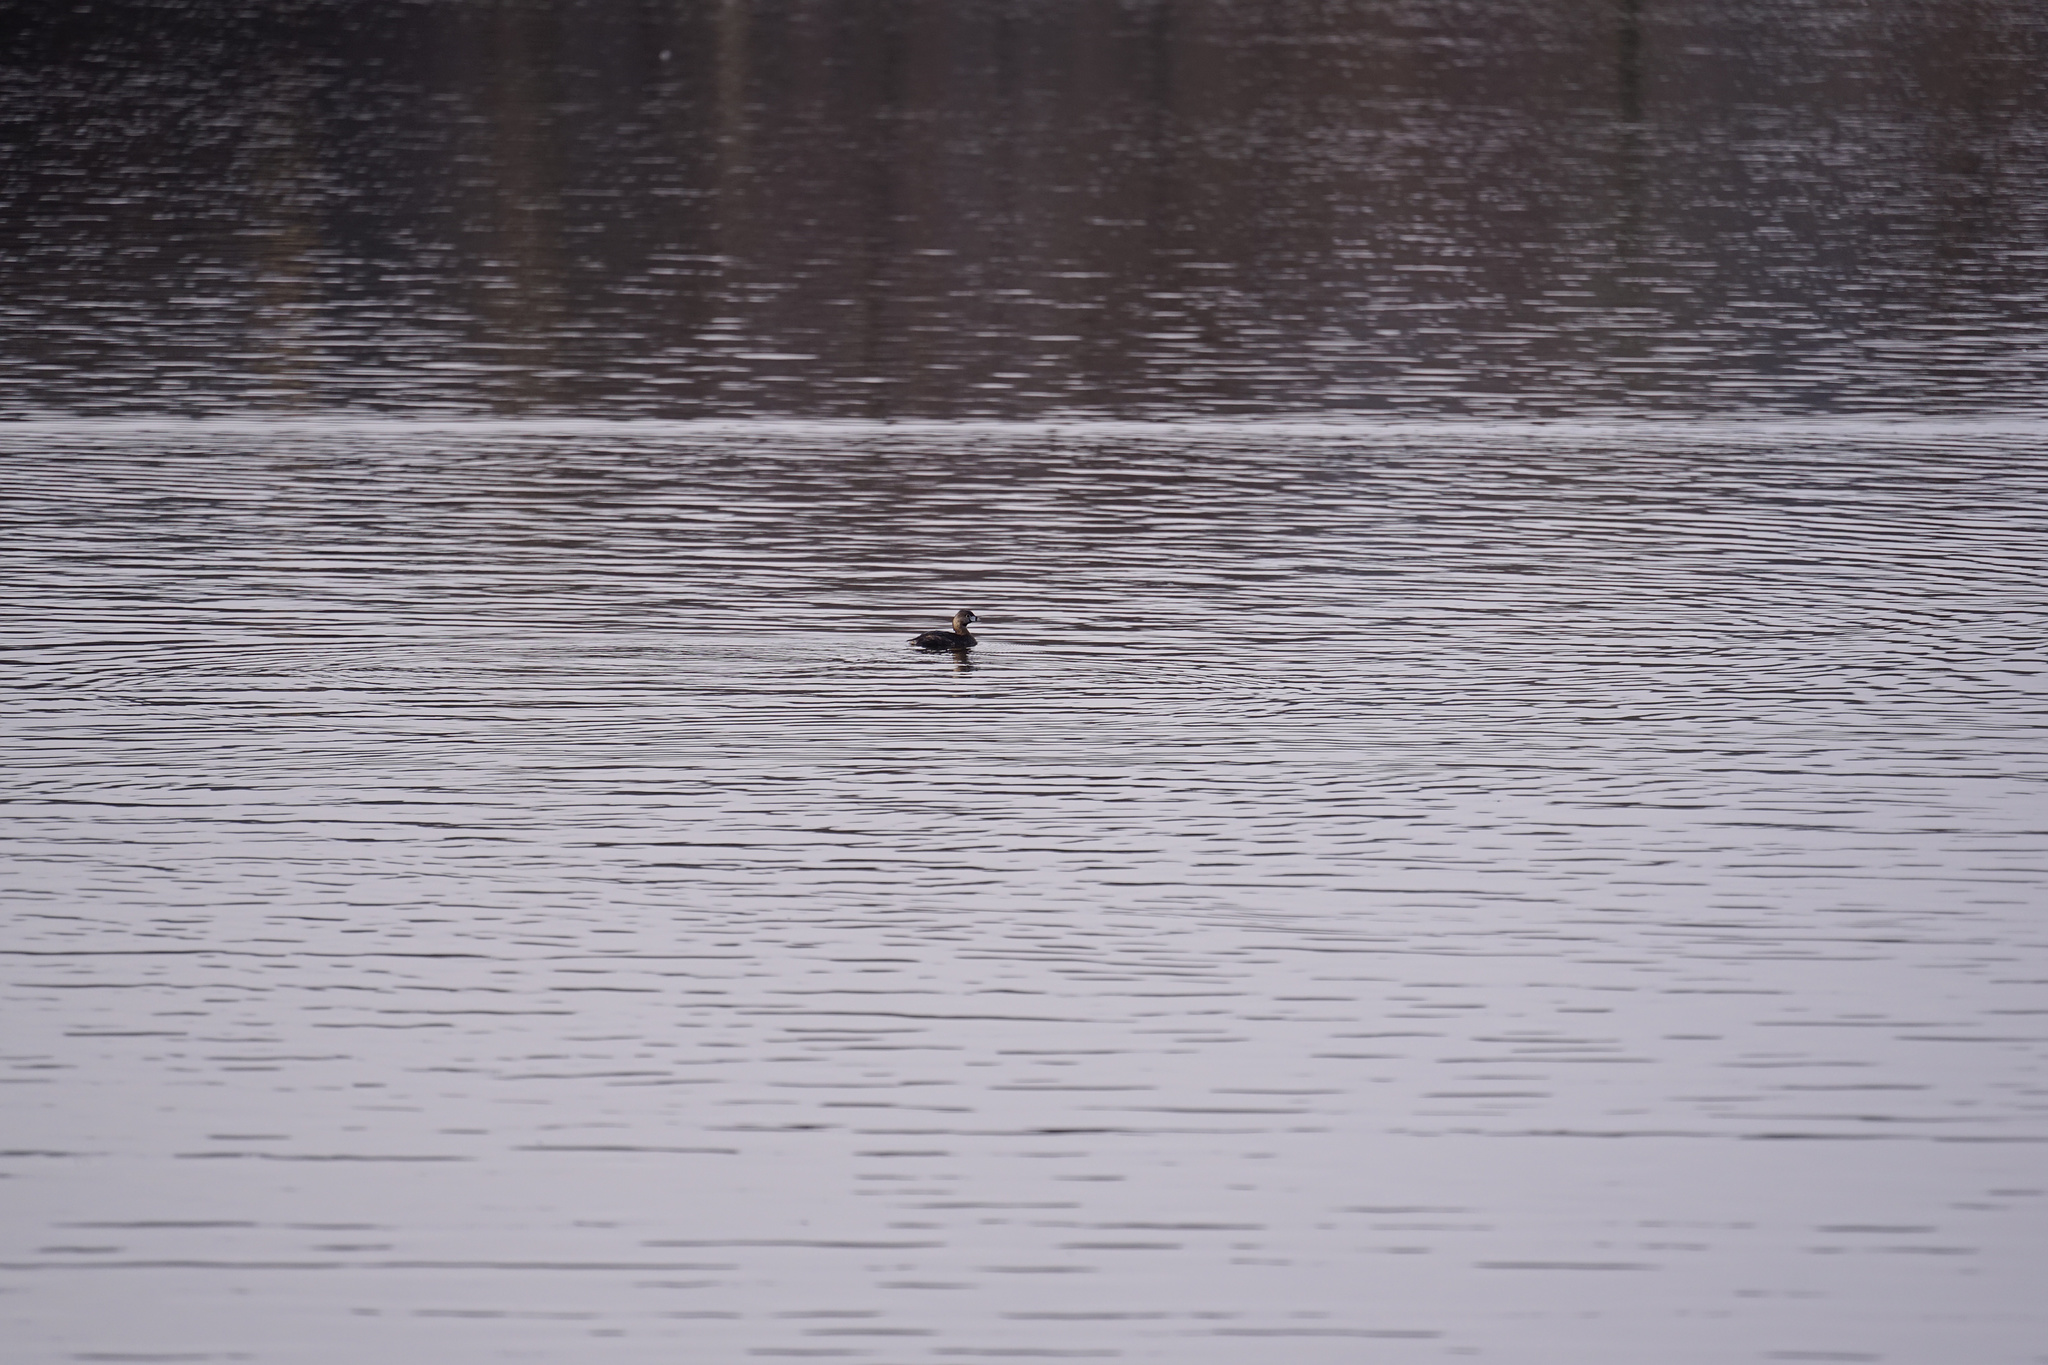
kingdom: Animalia
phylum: Chordata
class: Aves
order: Podicipediformes
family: Podicipedidae
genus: Podilymbus
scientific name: Podilymbus podiceps
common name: Pied-billed grebe
